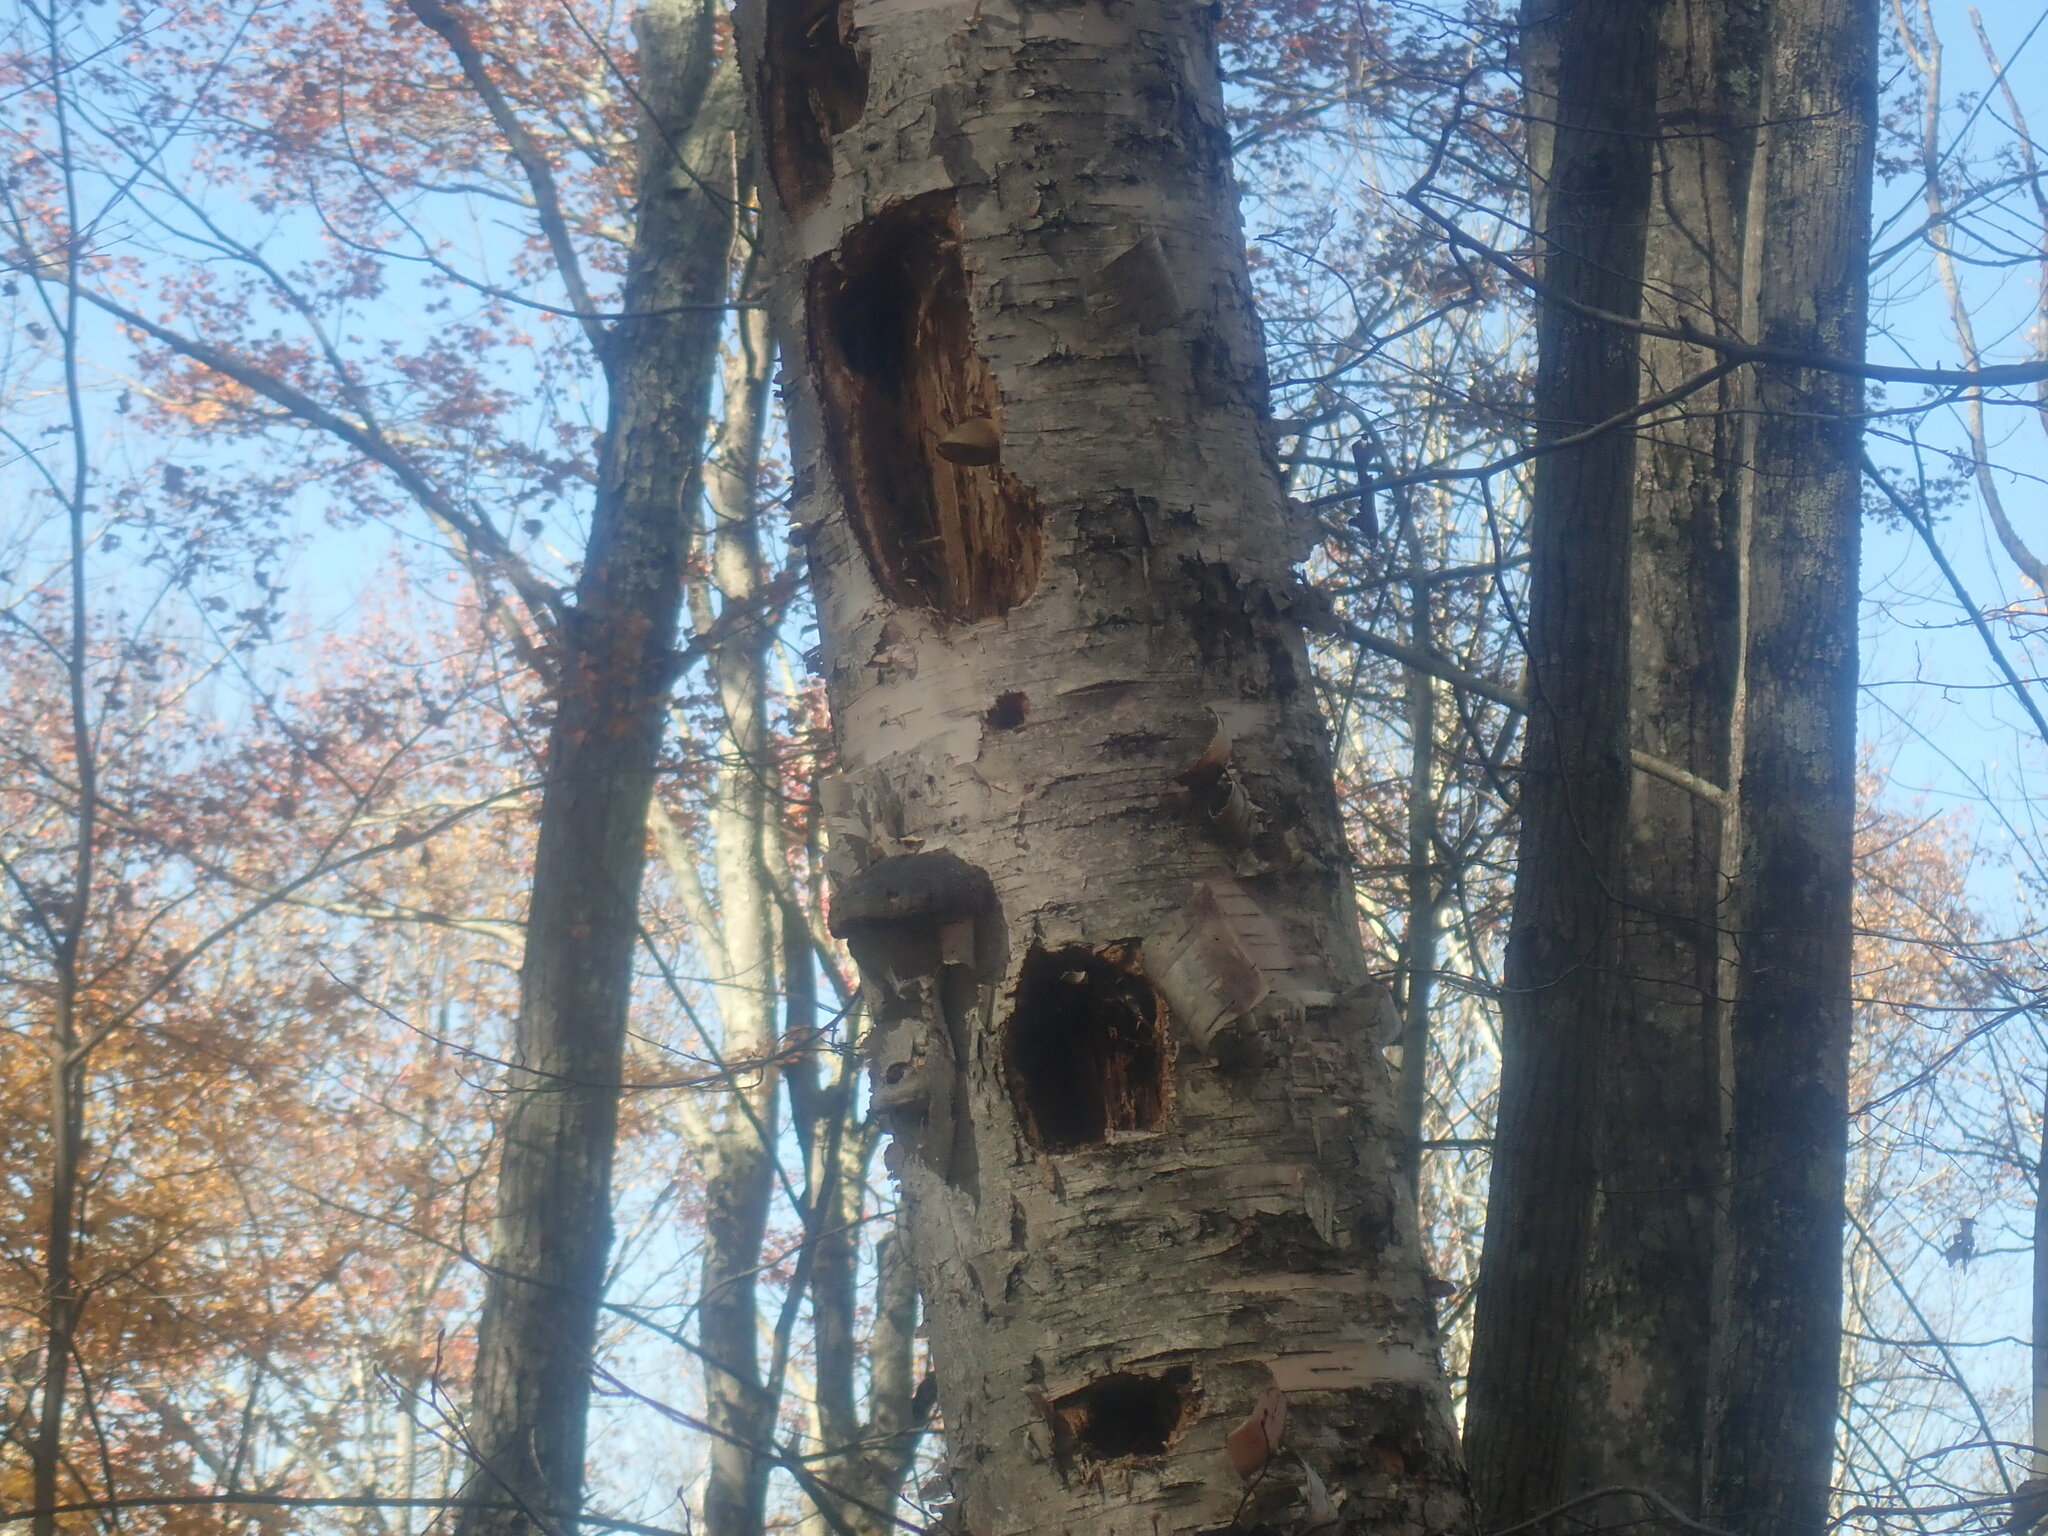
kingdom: Animalia
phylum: Chordata
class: Aves
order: Piciformes
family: Picidae
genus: Dryocopus
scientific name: Dryocopus pileatus
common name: Pileated woodpecker
